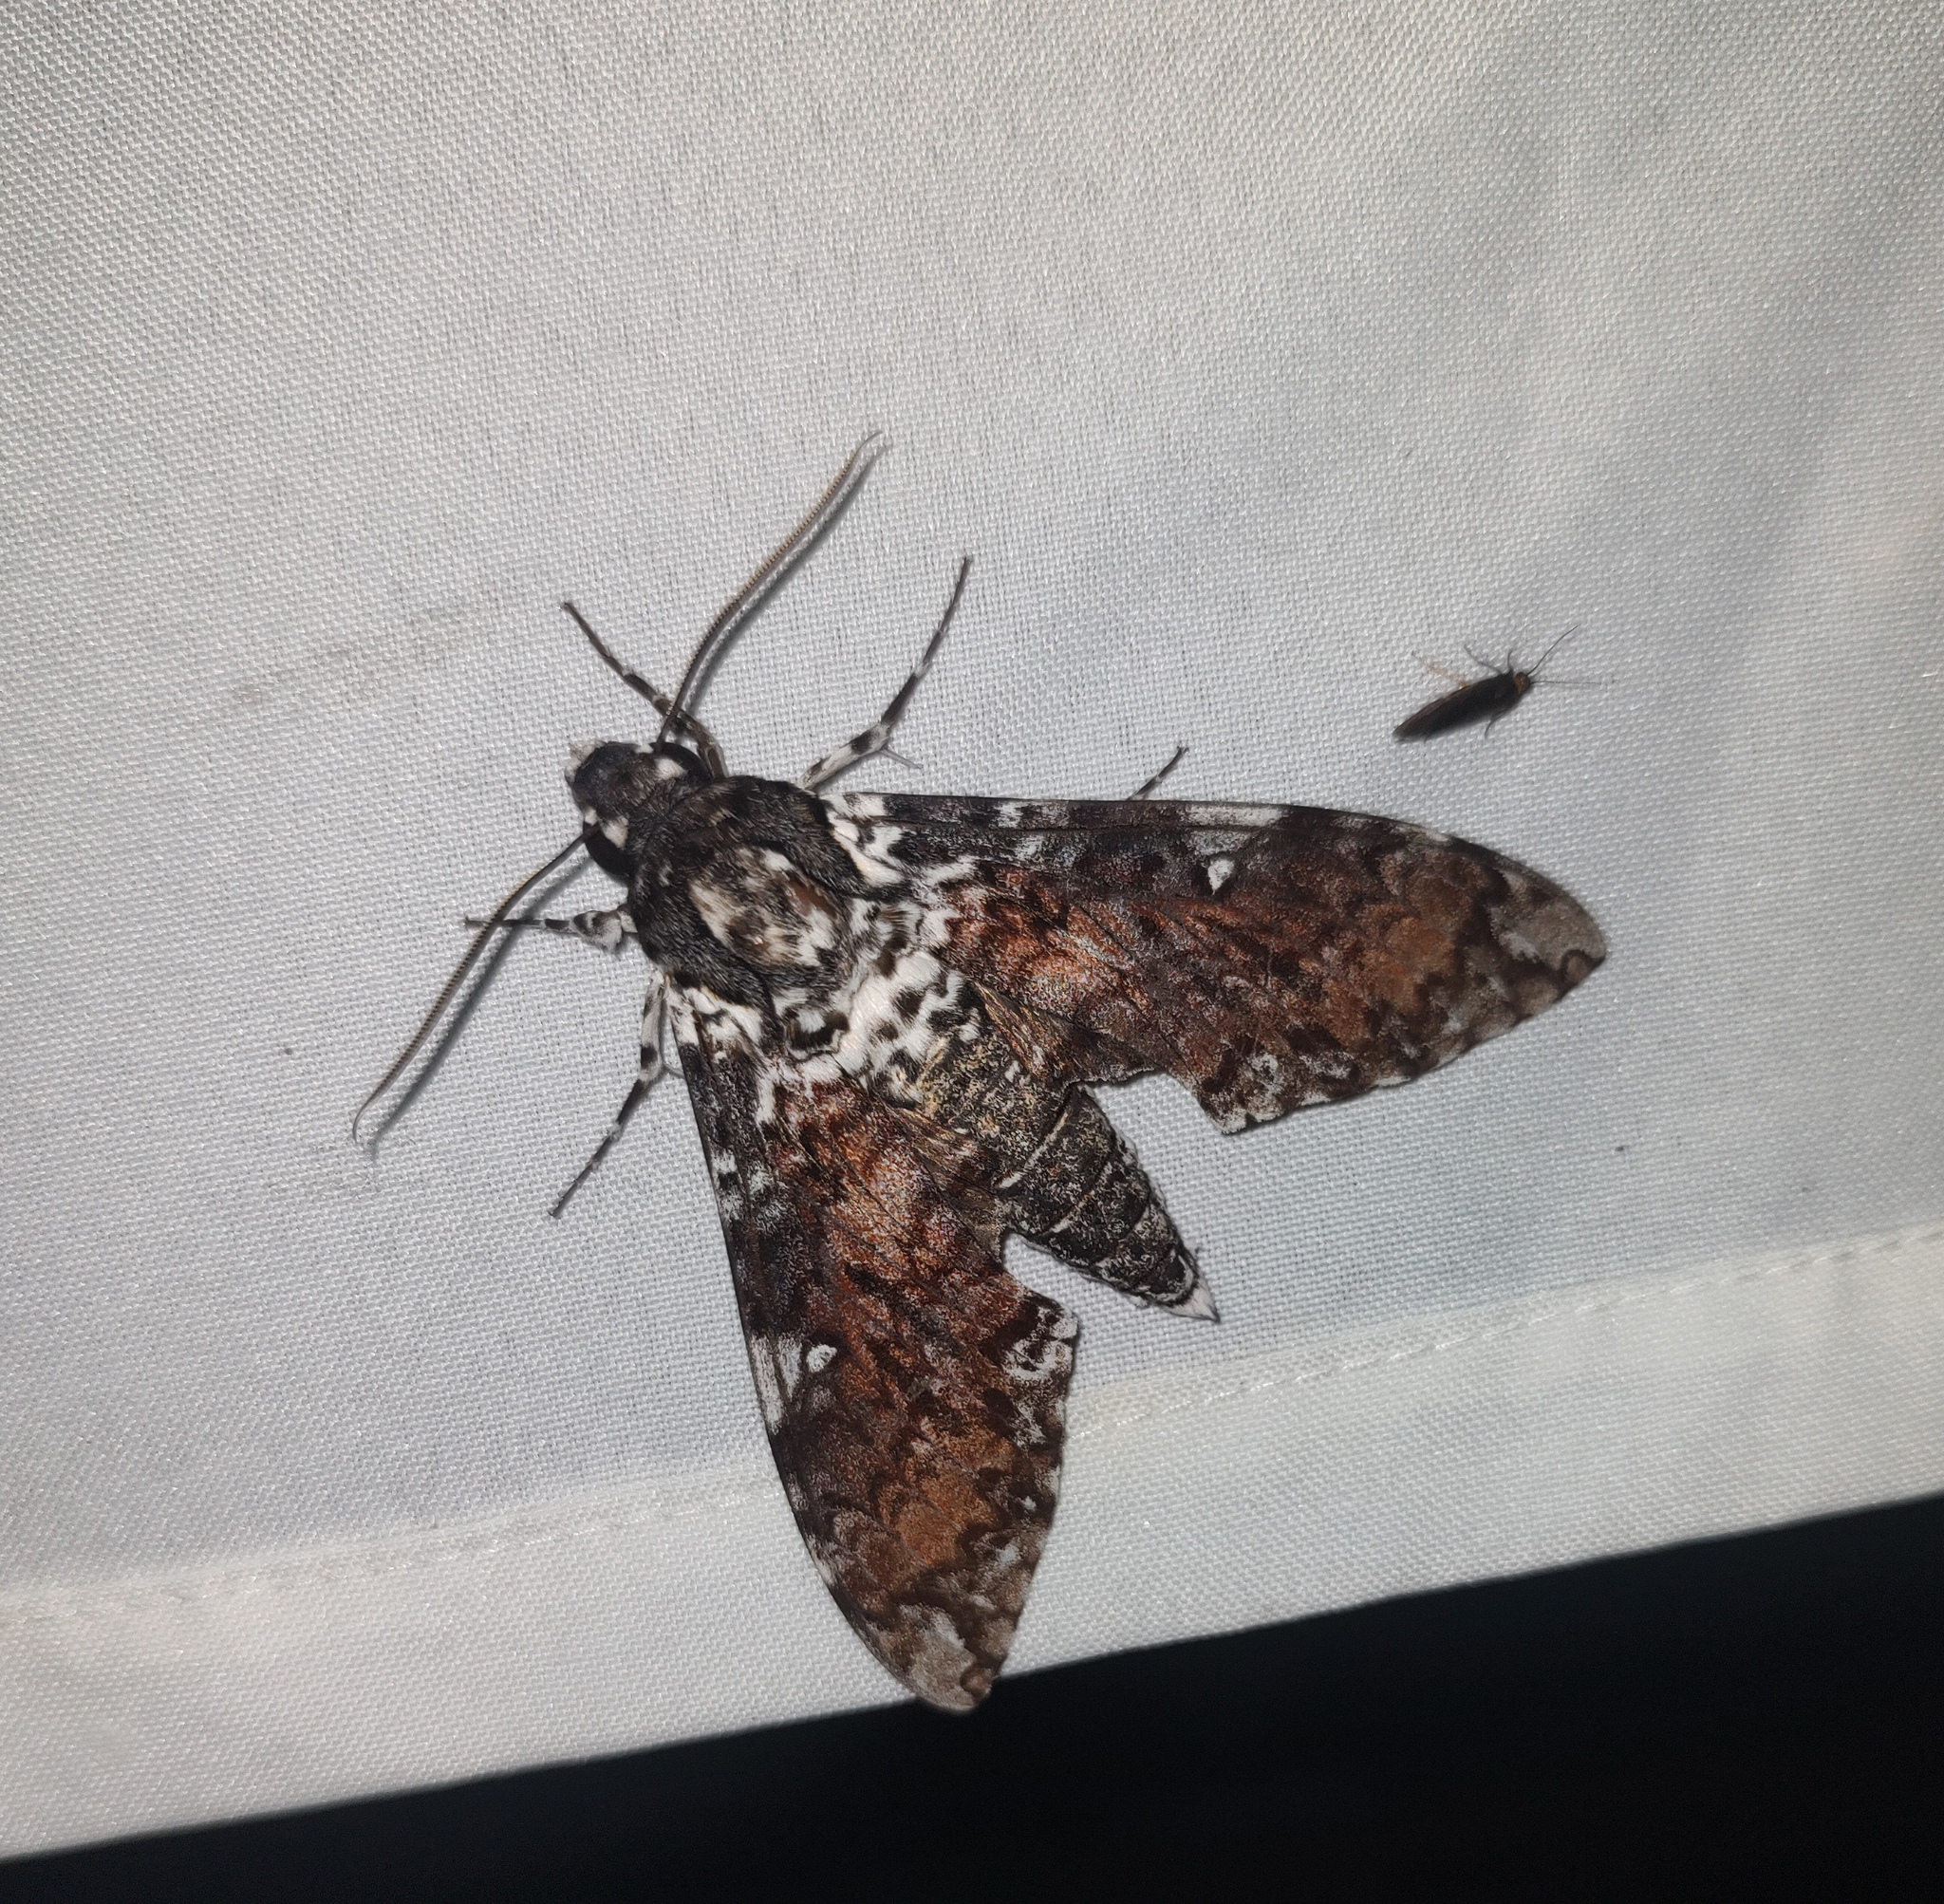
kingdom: Animalia
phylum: Arthropoda
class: Insecta
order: Lepidoptera
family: Sphingidae
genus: Manduca
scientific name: Manduca dalica
